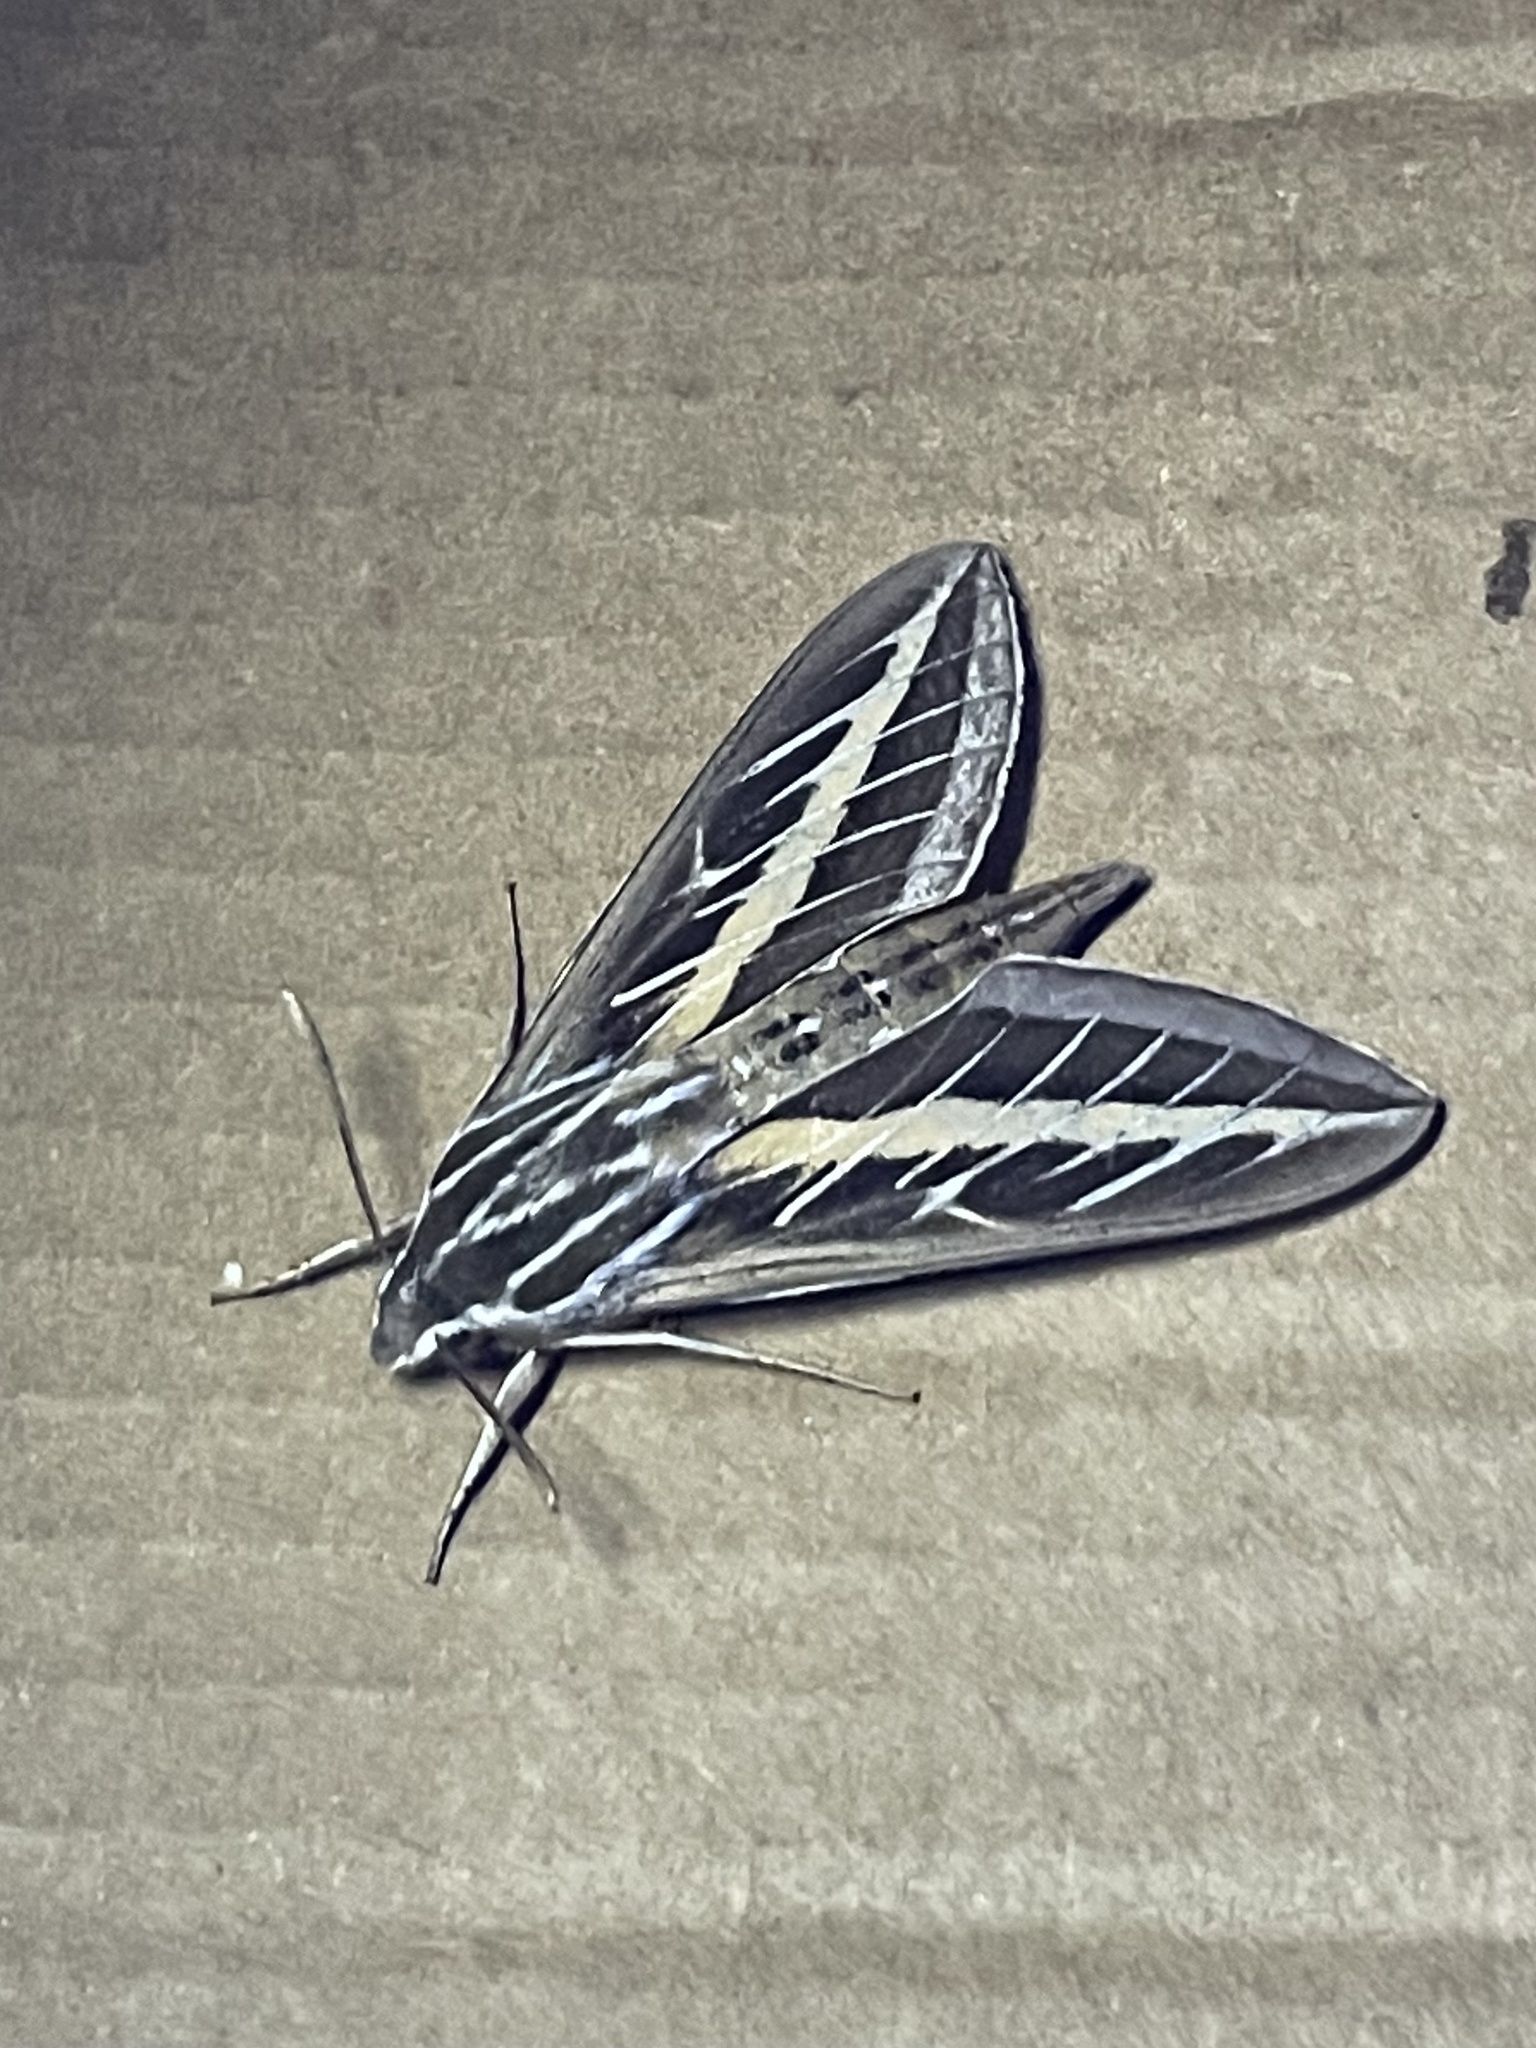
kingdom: Animalia
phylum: Arthropoda
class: Insecta
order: Lepidoptera
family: Sphingidae
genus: Hyles
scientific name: Hyles lineata
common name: White-lined sphinx
